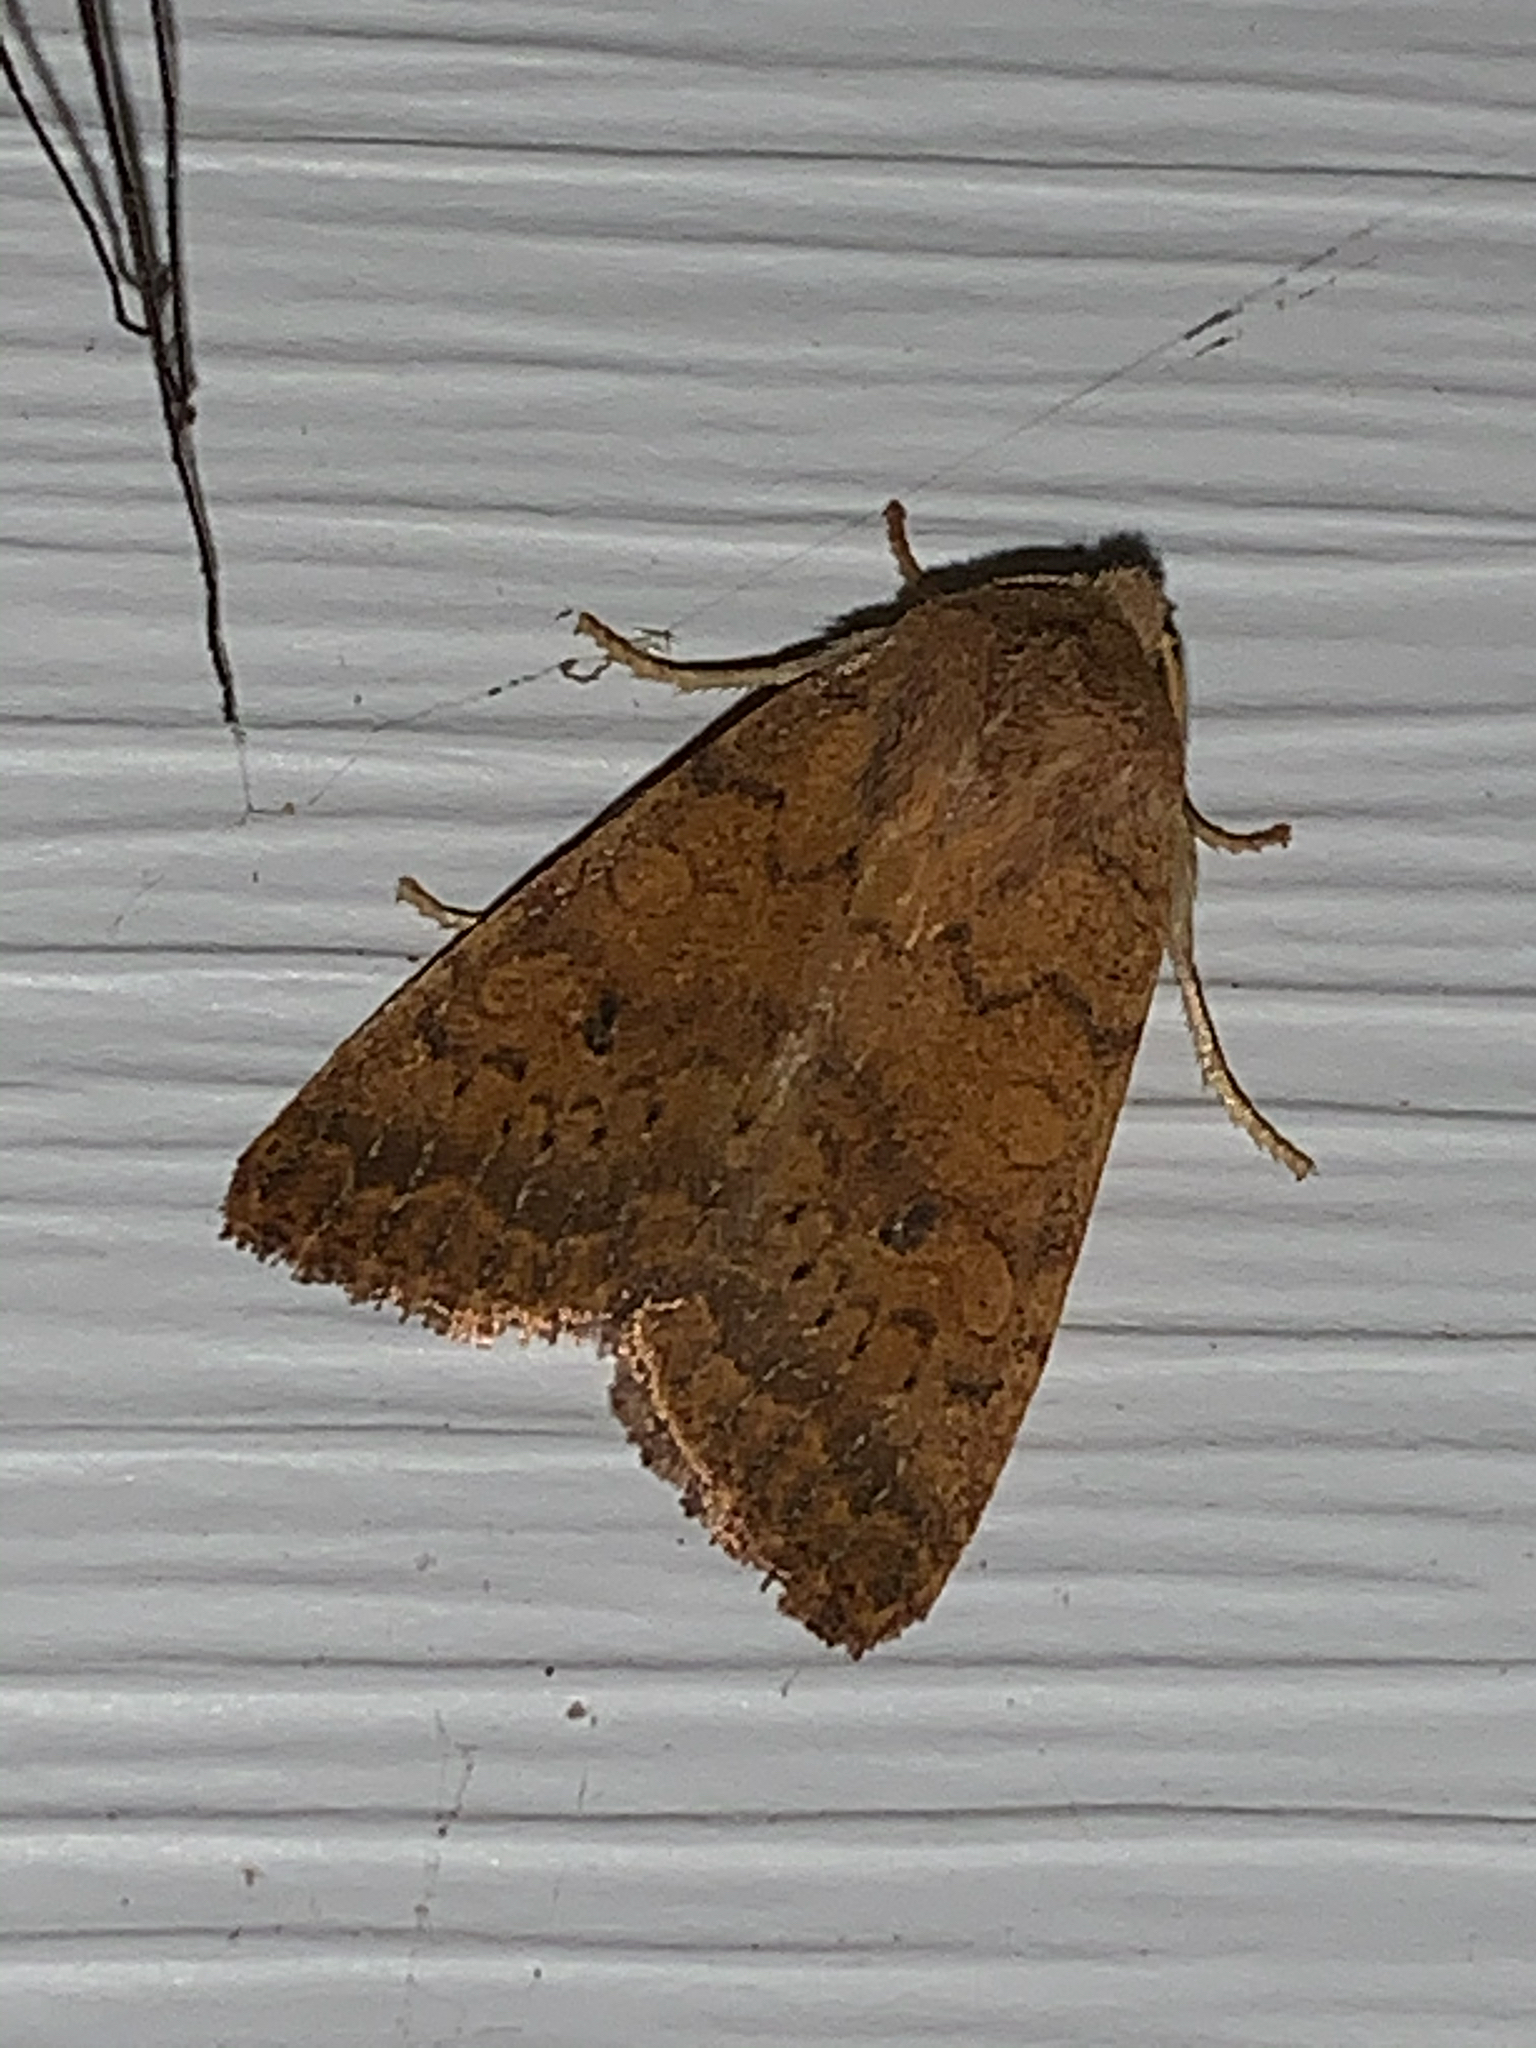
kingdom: Animalia
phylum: Arthropoda
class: Insecta
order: Lepidoptera
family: Noctuidae
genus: Agrochola
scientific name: Agrochola bicolorago
